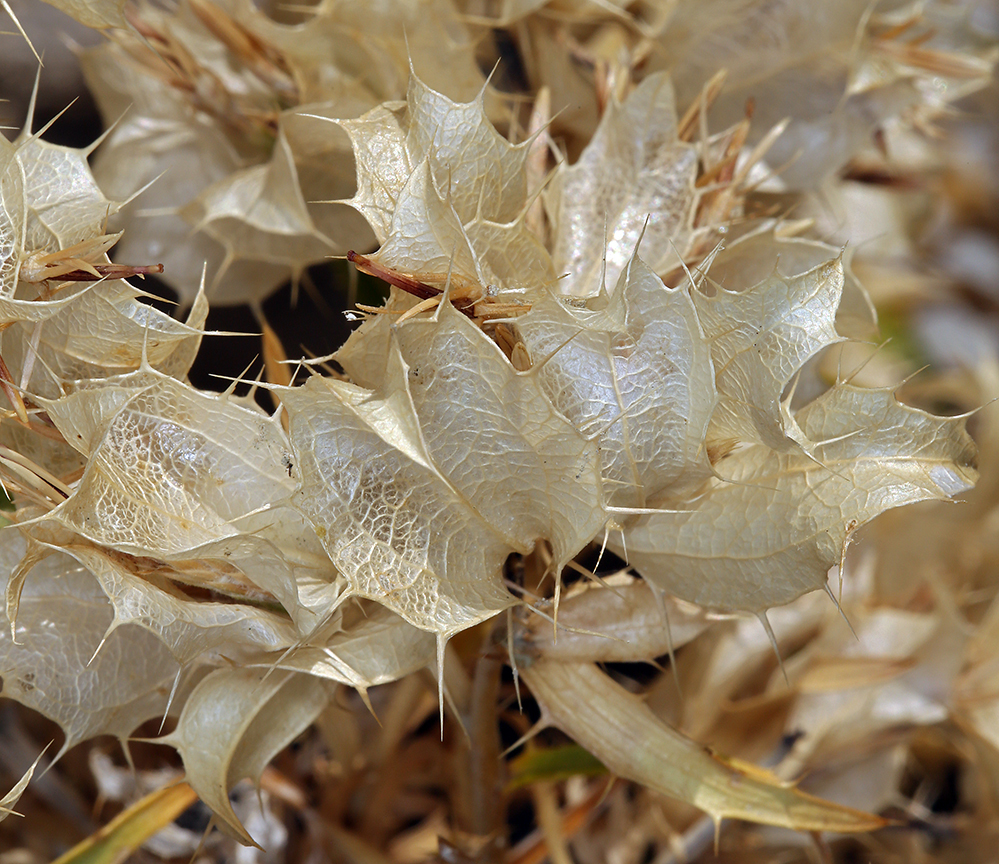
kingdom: Plantae
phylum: Tracheophyta
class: Magnoliopsida
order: Asterales
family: Asteraceae
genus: Hecastocleis
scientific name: Hecastocleis shockleyi
